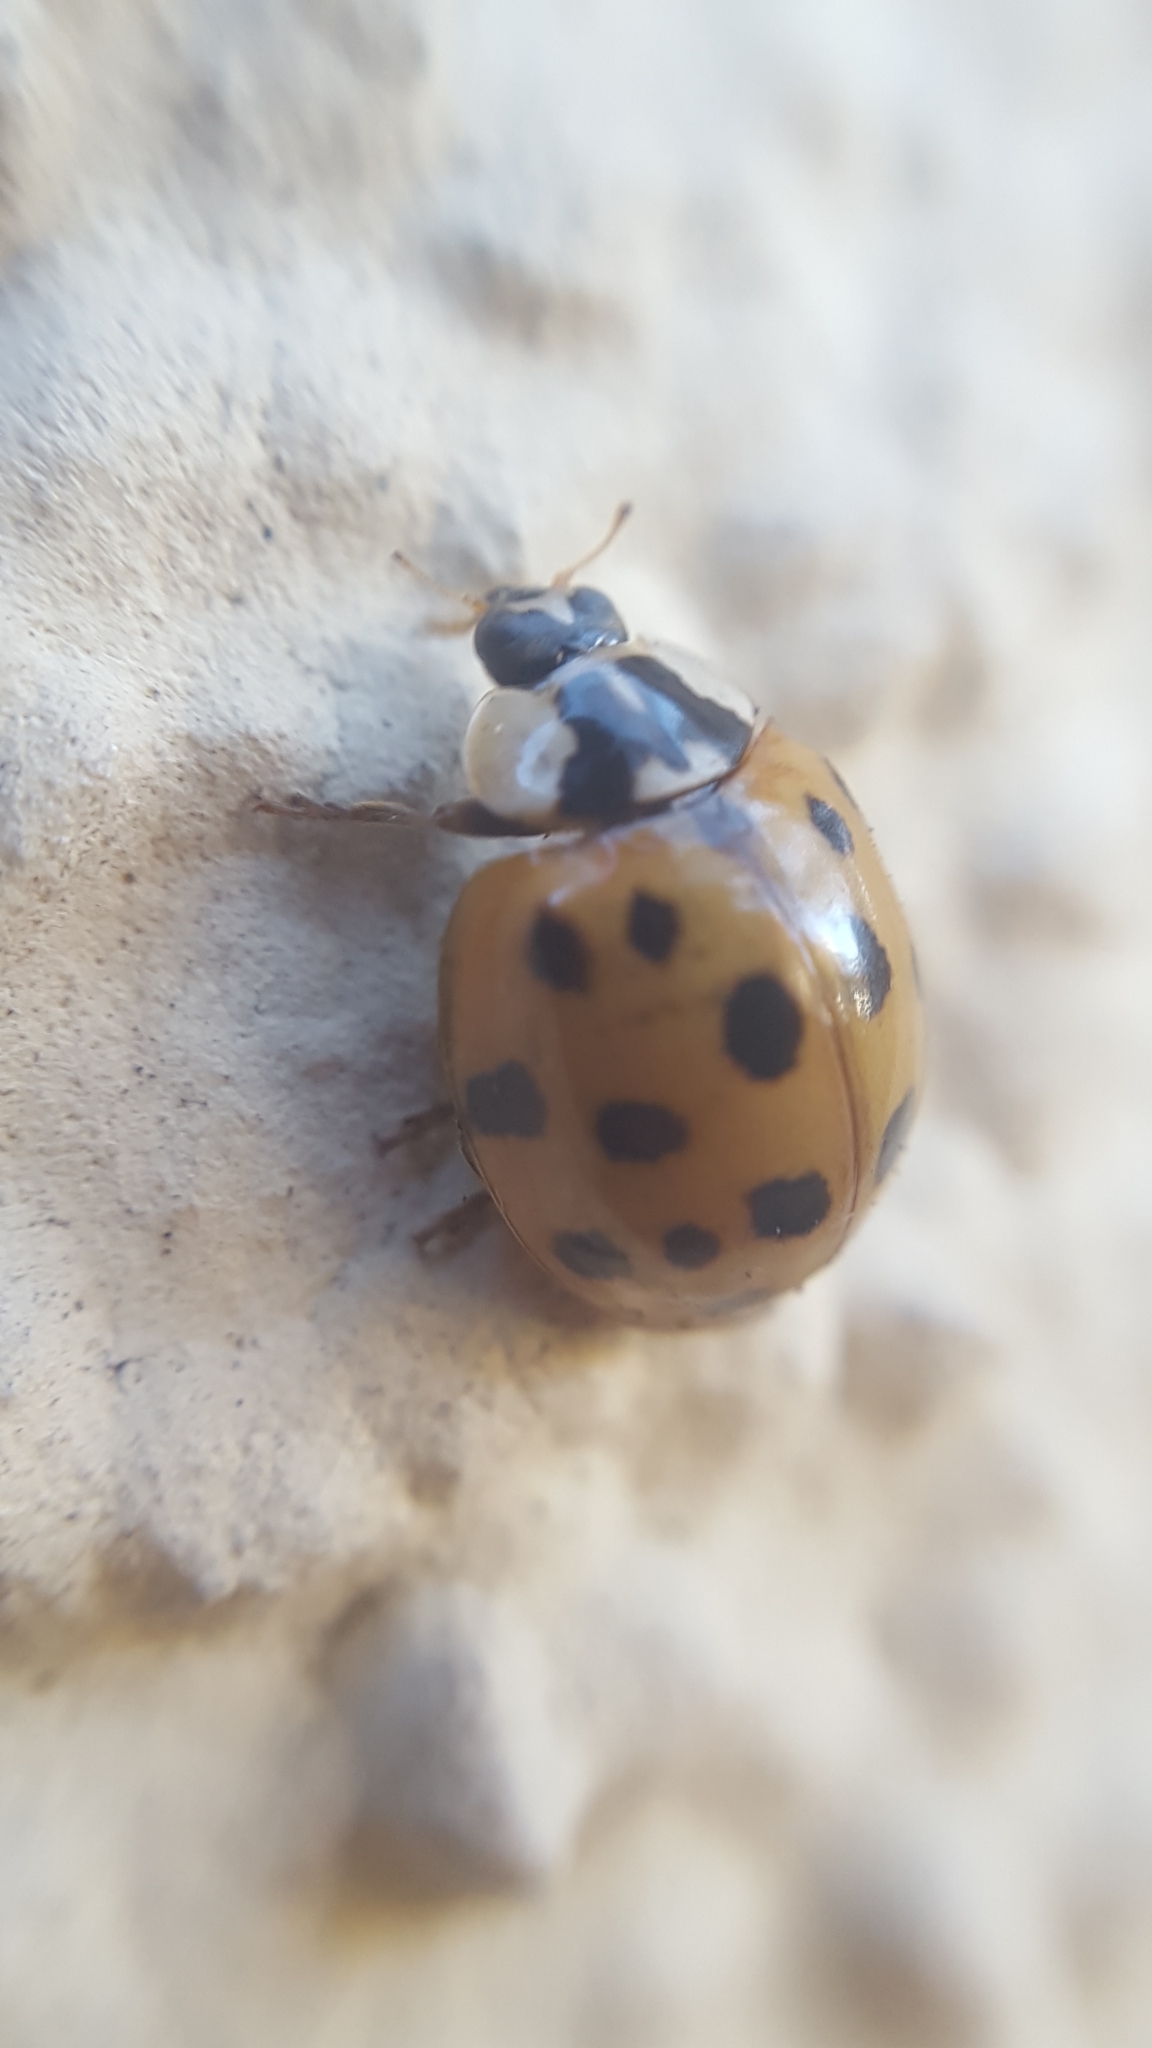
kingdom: Animalia
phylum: Arthropoda
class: Insecta
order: Coleoptera
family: Coccinellidae
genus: Harmonia
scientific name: Harmonia axyridis
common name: Harlequin ladybird
